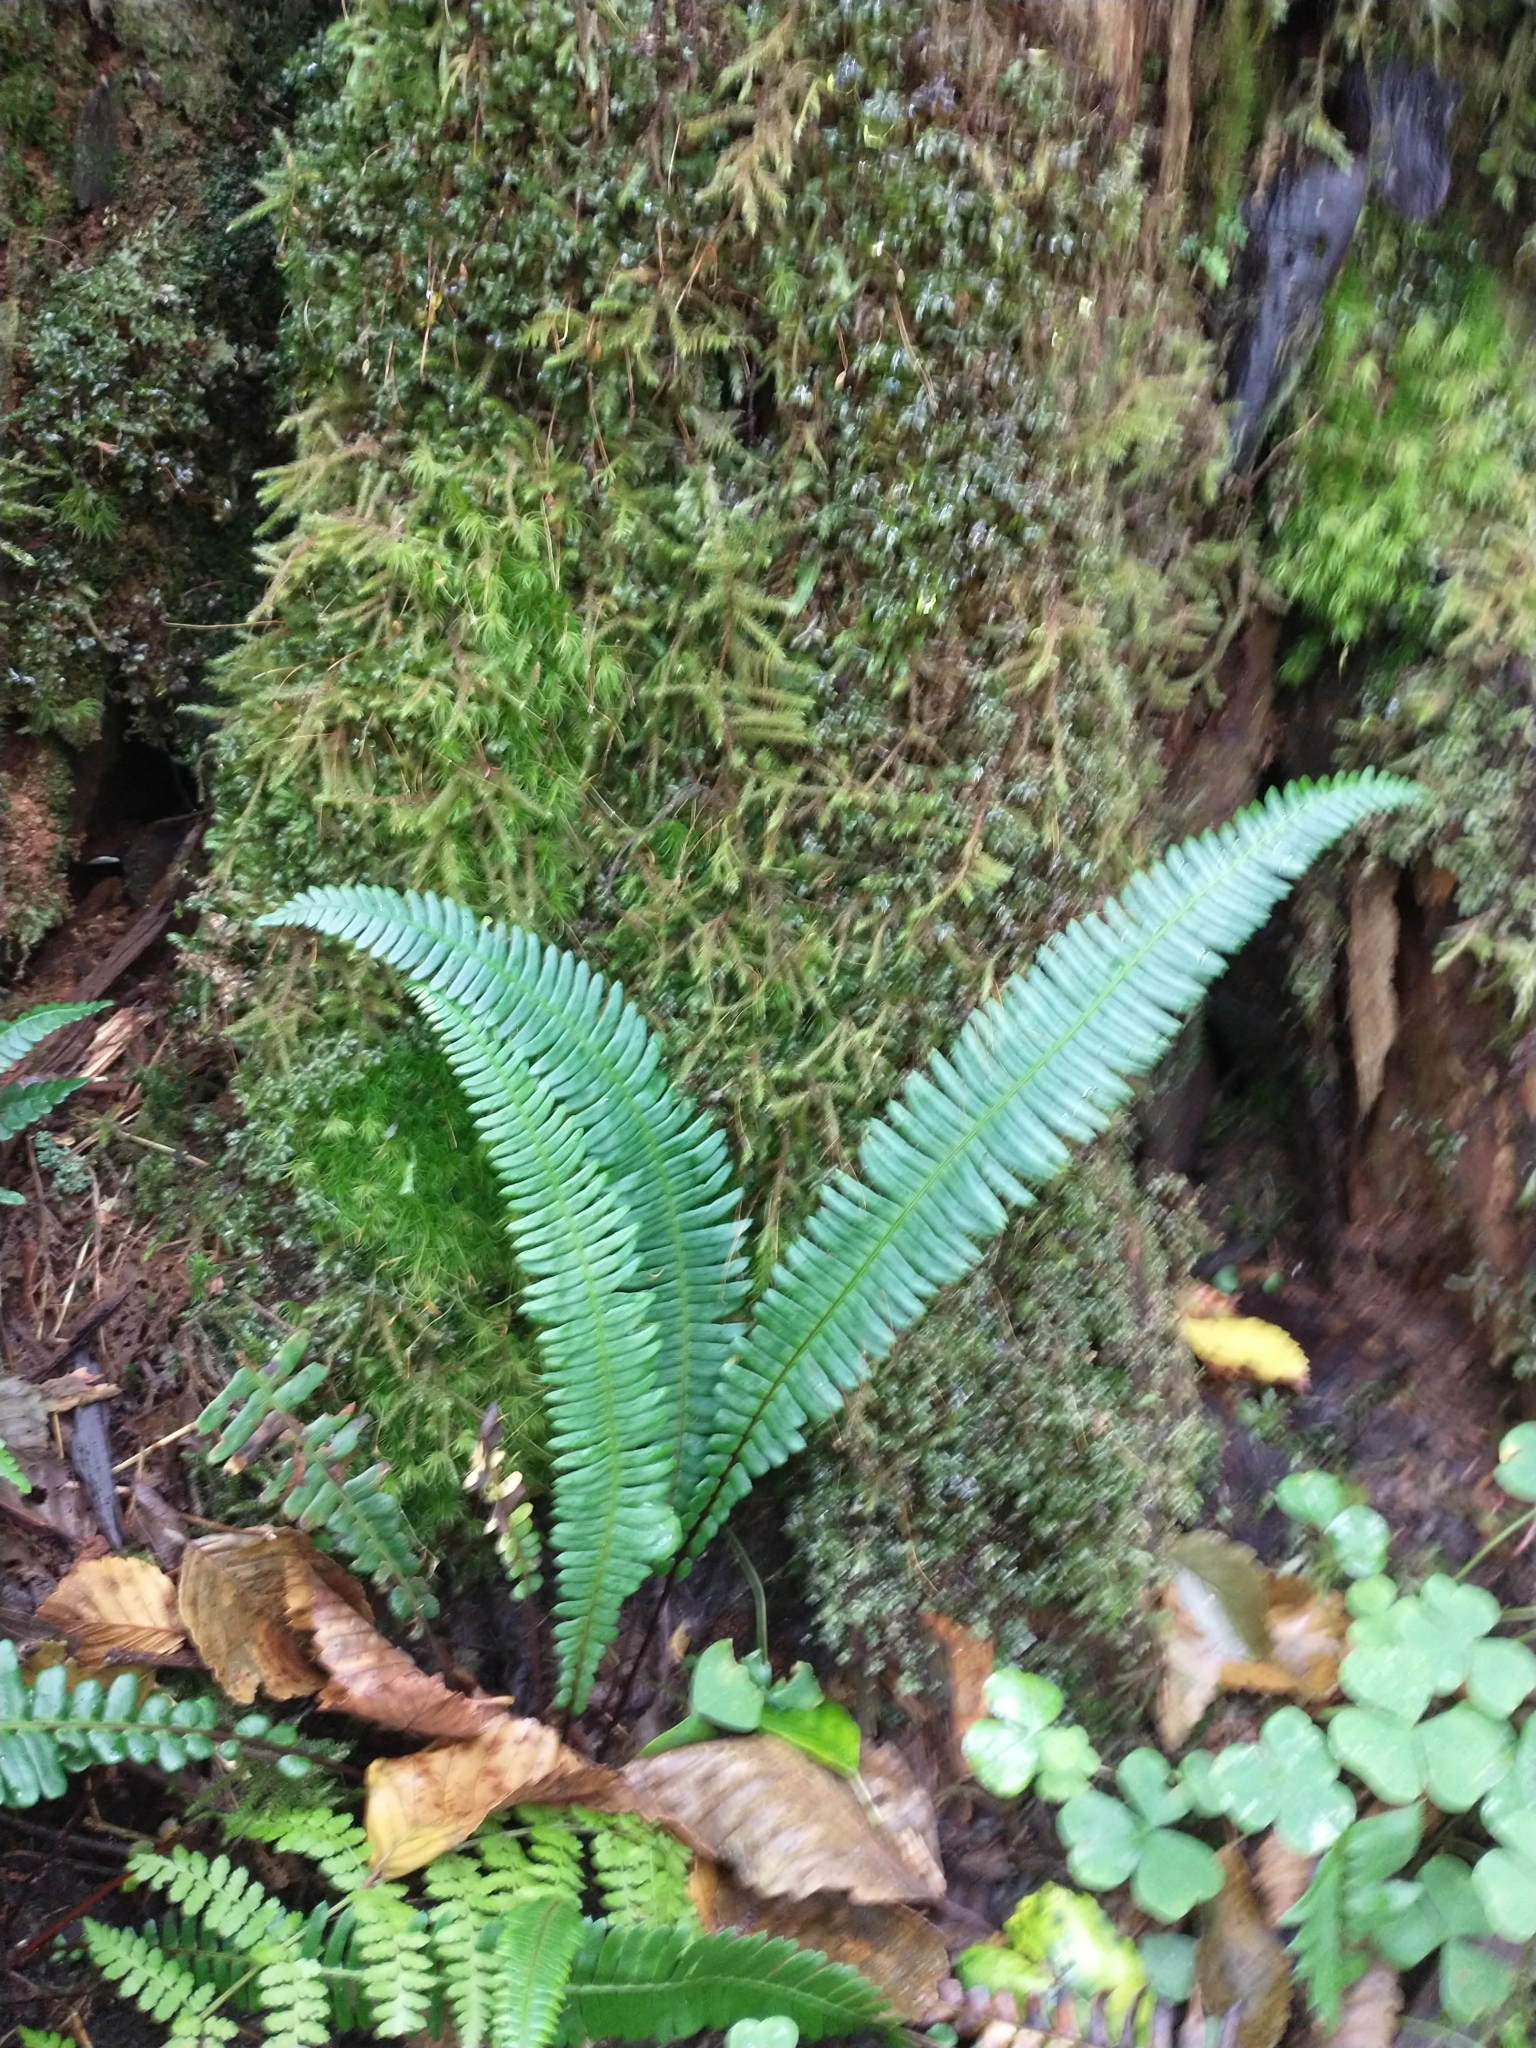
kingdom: Plantae
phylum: Tracheophyta
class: Polypodiopsida
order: Polypodiales
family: Blechnaceae
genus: Struthiopteris
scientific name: Struthiopteris spicant
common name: Deer fern
